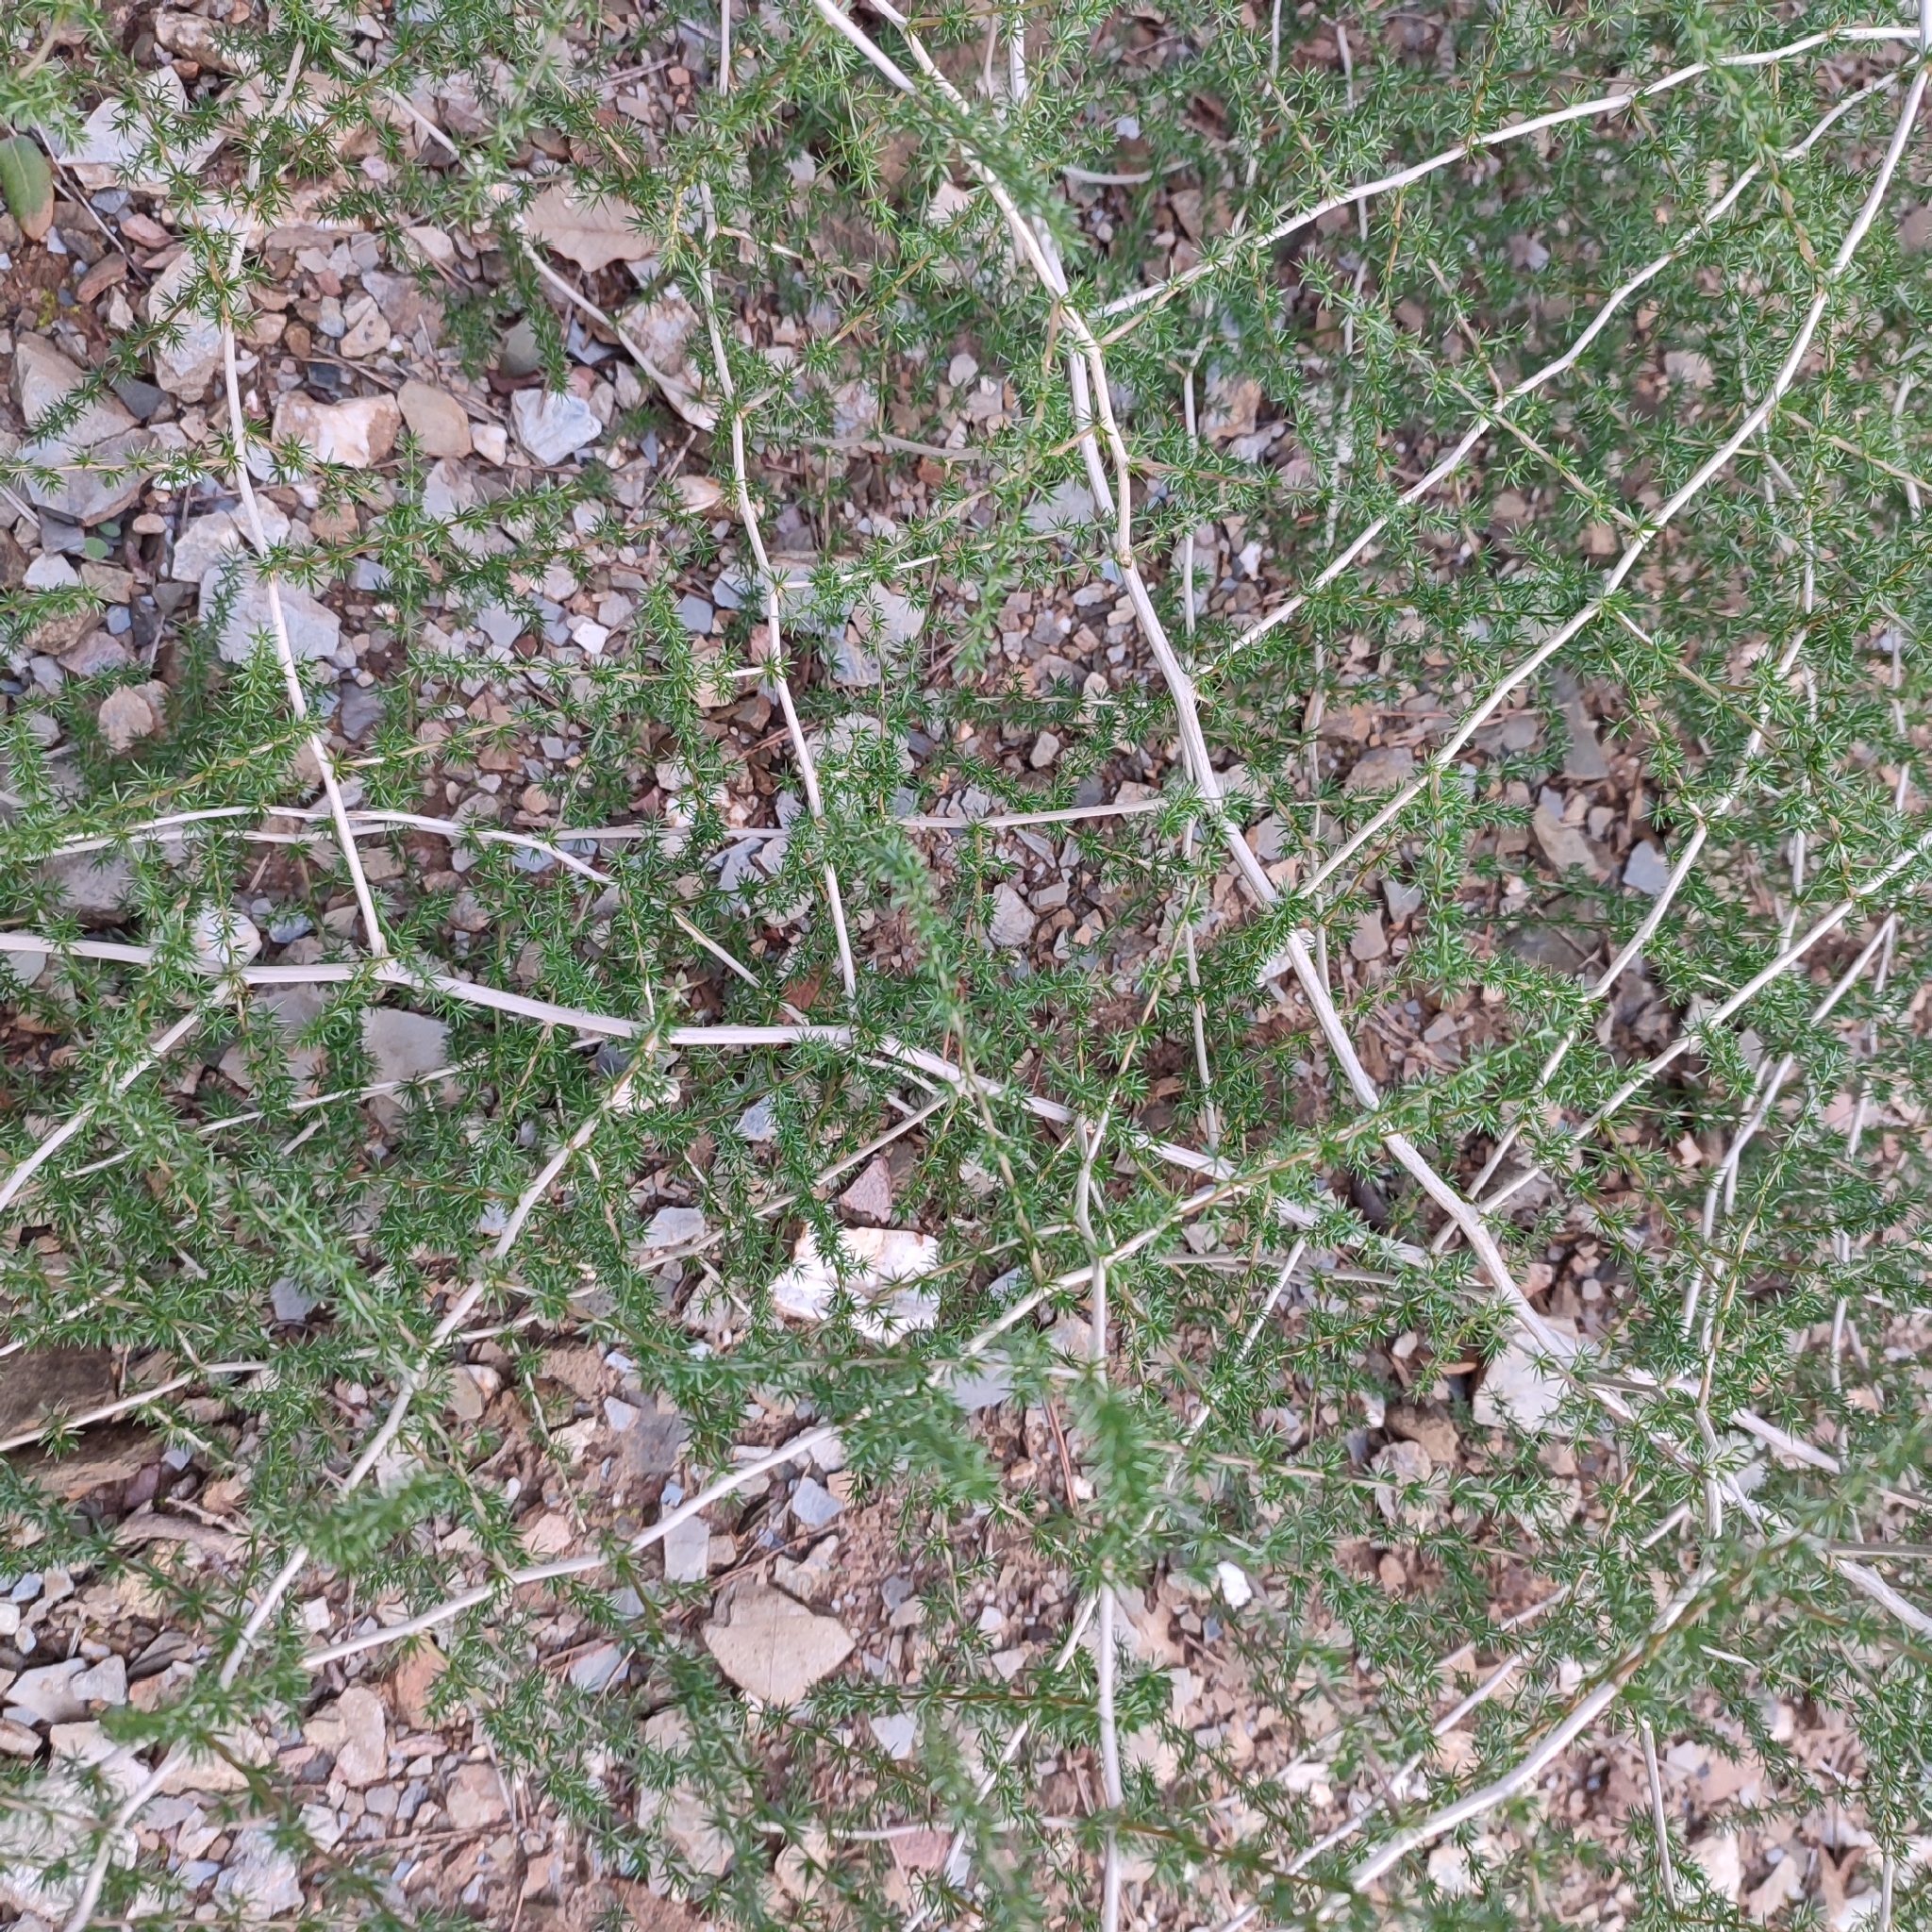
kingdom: Plantae
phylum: Tracheophyta
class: Liliopsida
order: Asparagales
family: Asparagaceae
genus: Asparagus
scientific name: Asparagus acutifolius
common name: Wild asparagus
